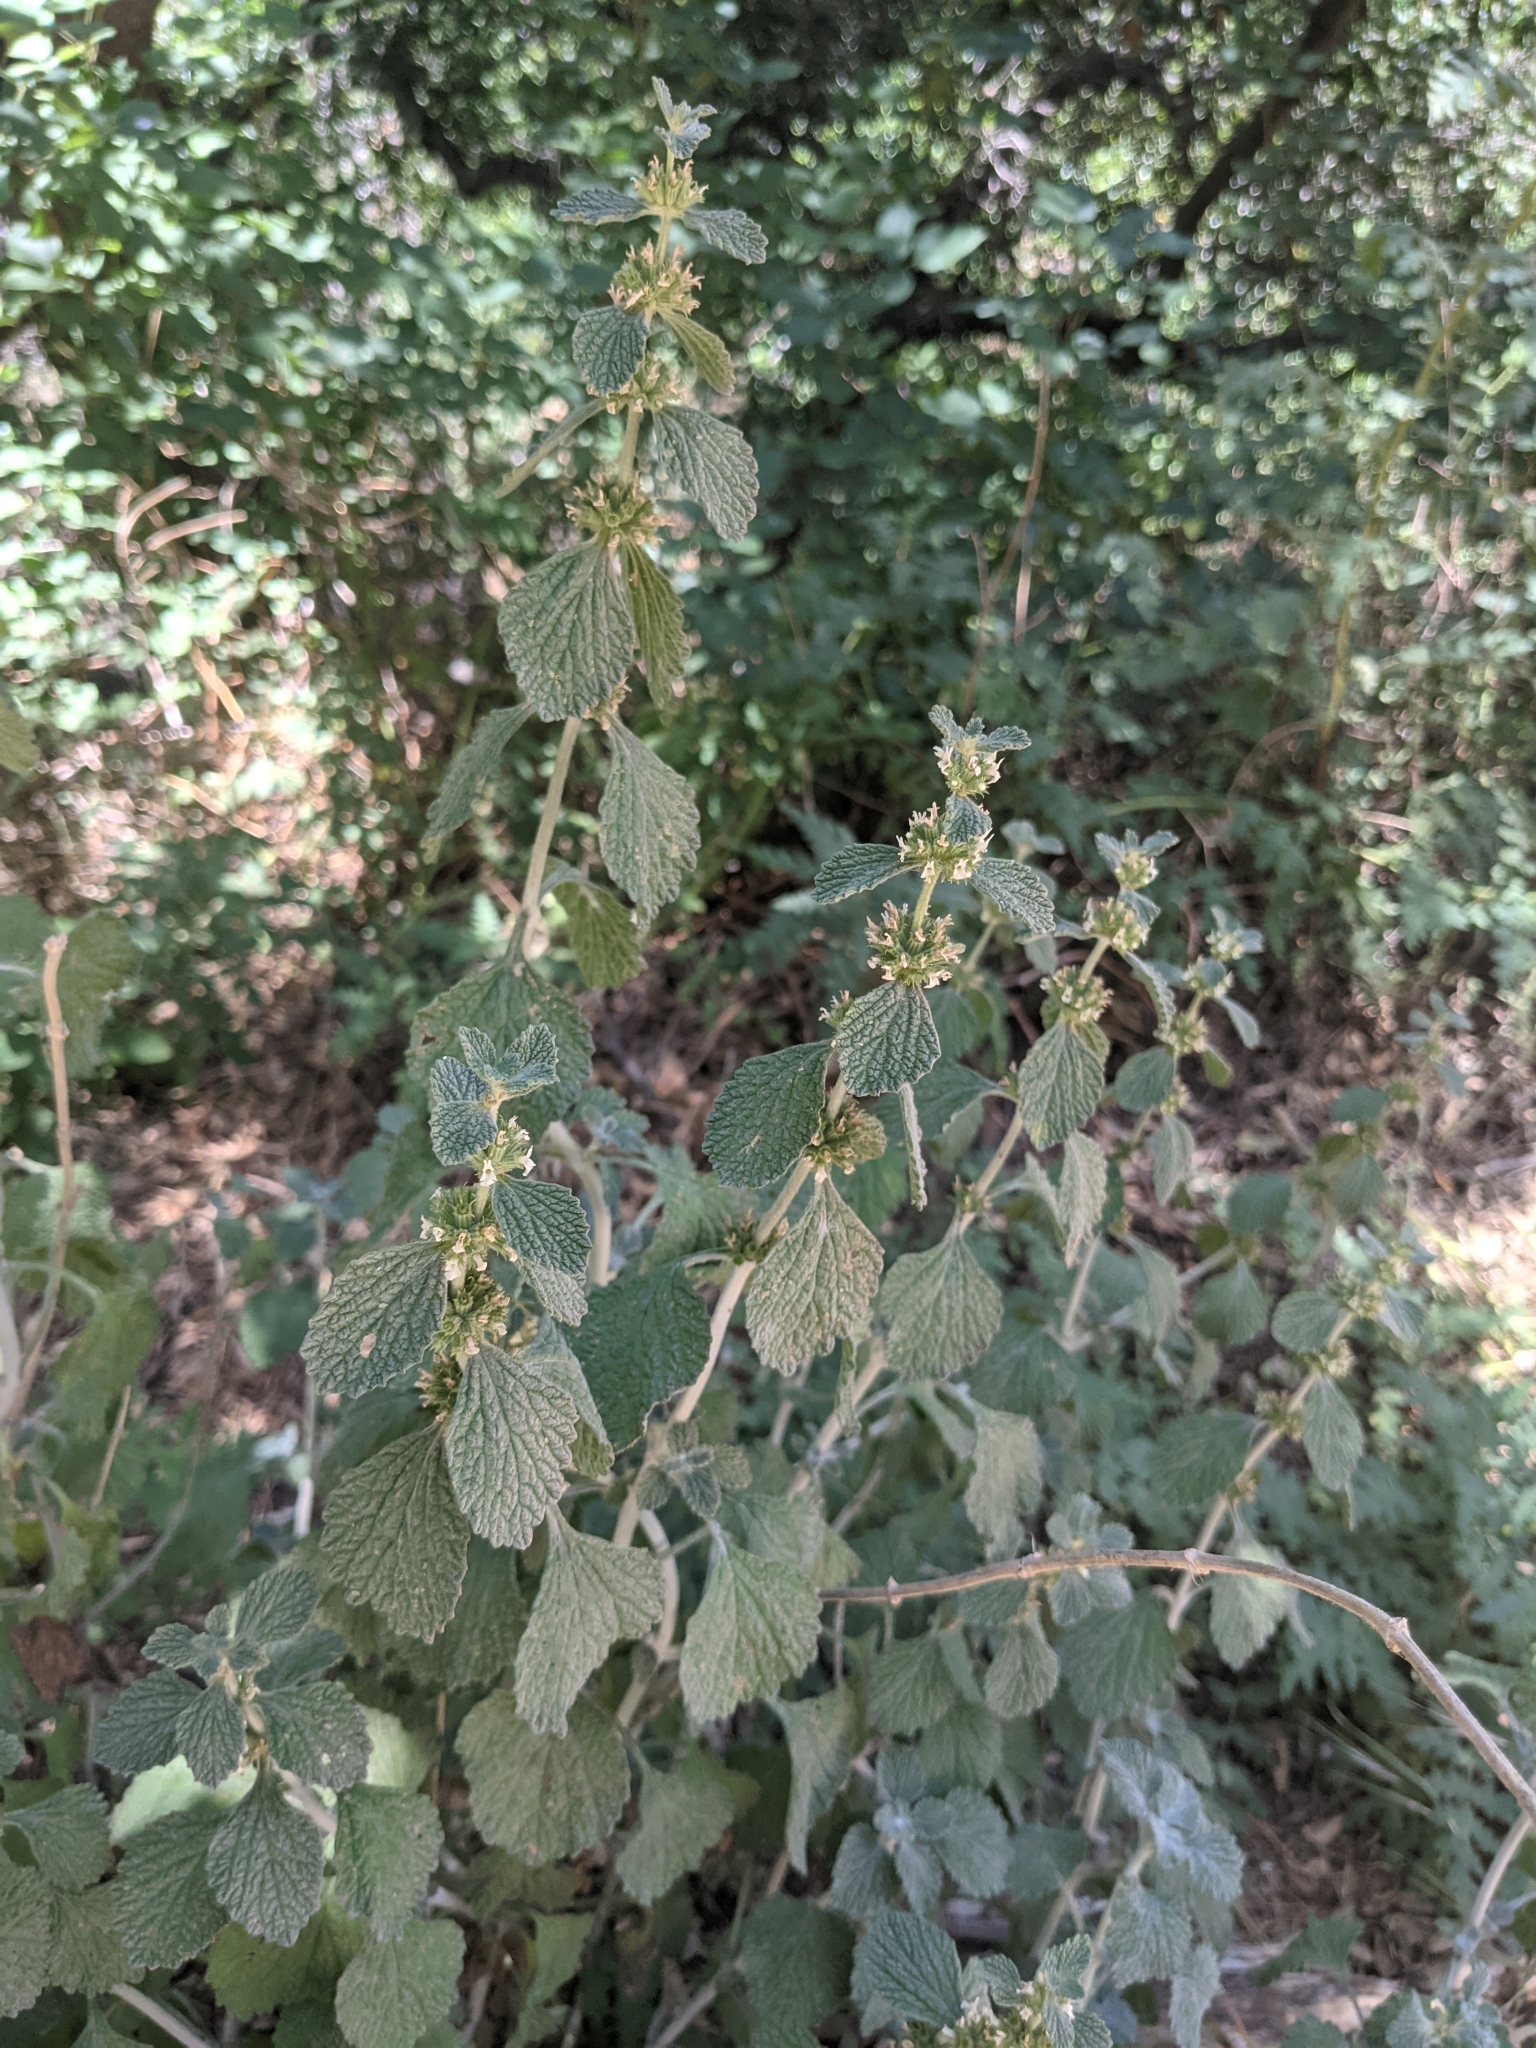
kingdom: Plantae
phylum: Tracheophyta
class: Magnoliopsida
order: Lamiales
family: Lamiaceae
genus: Marrubium
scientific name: Marrubium vulgare
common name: Horehound
